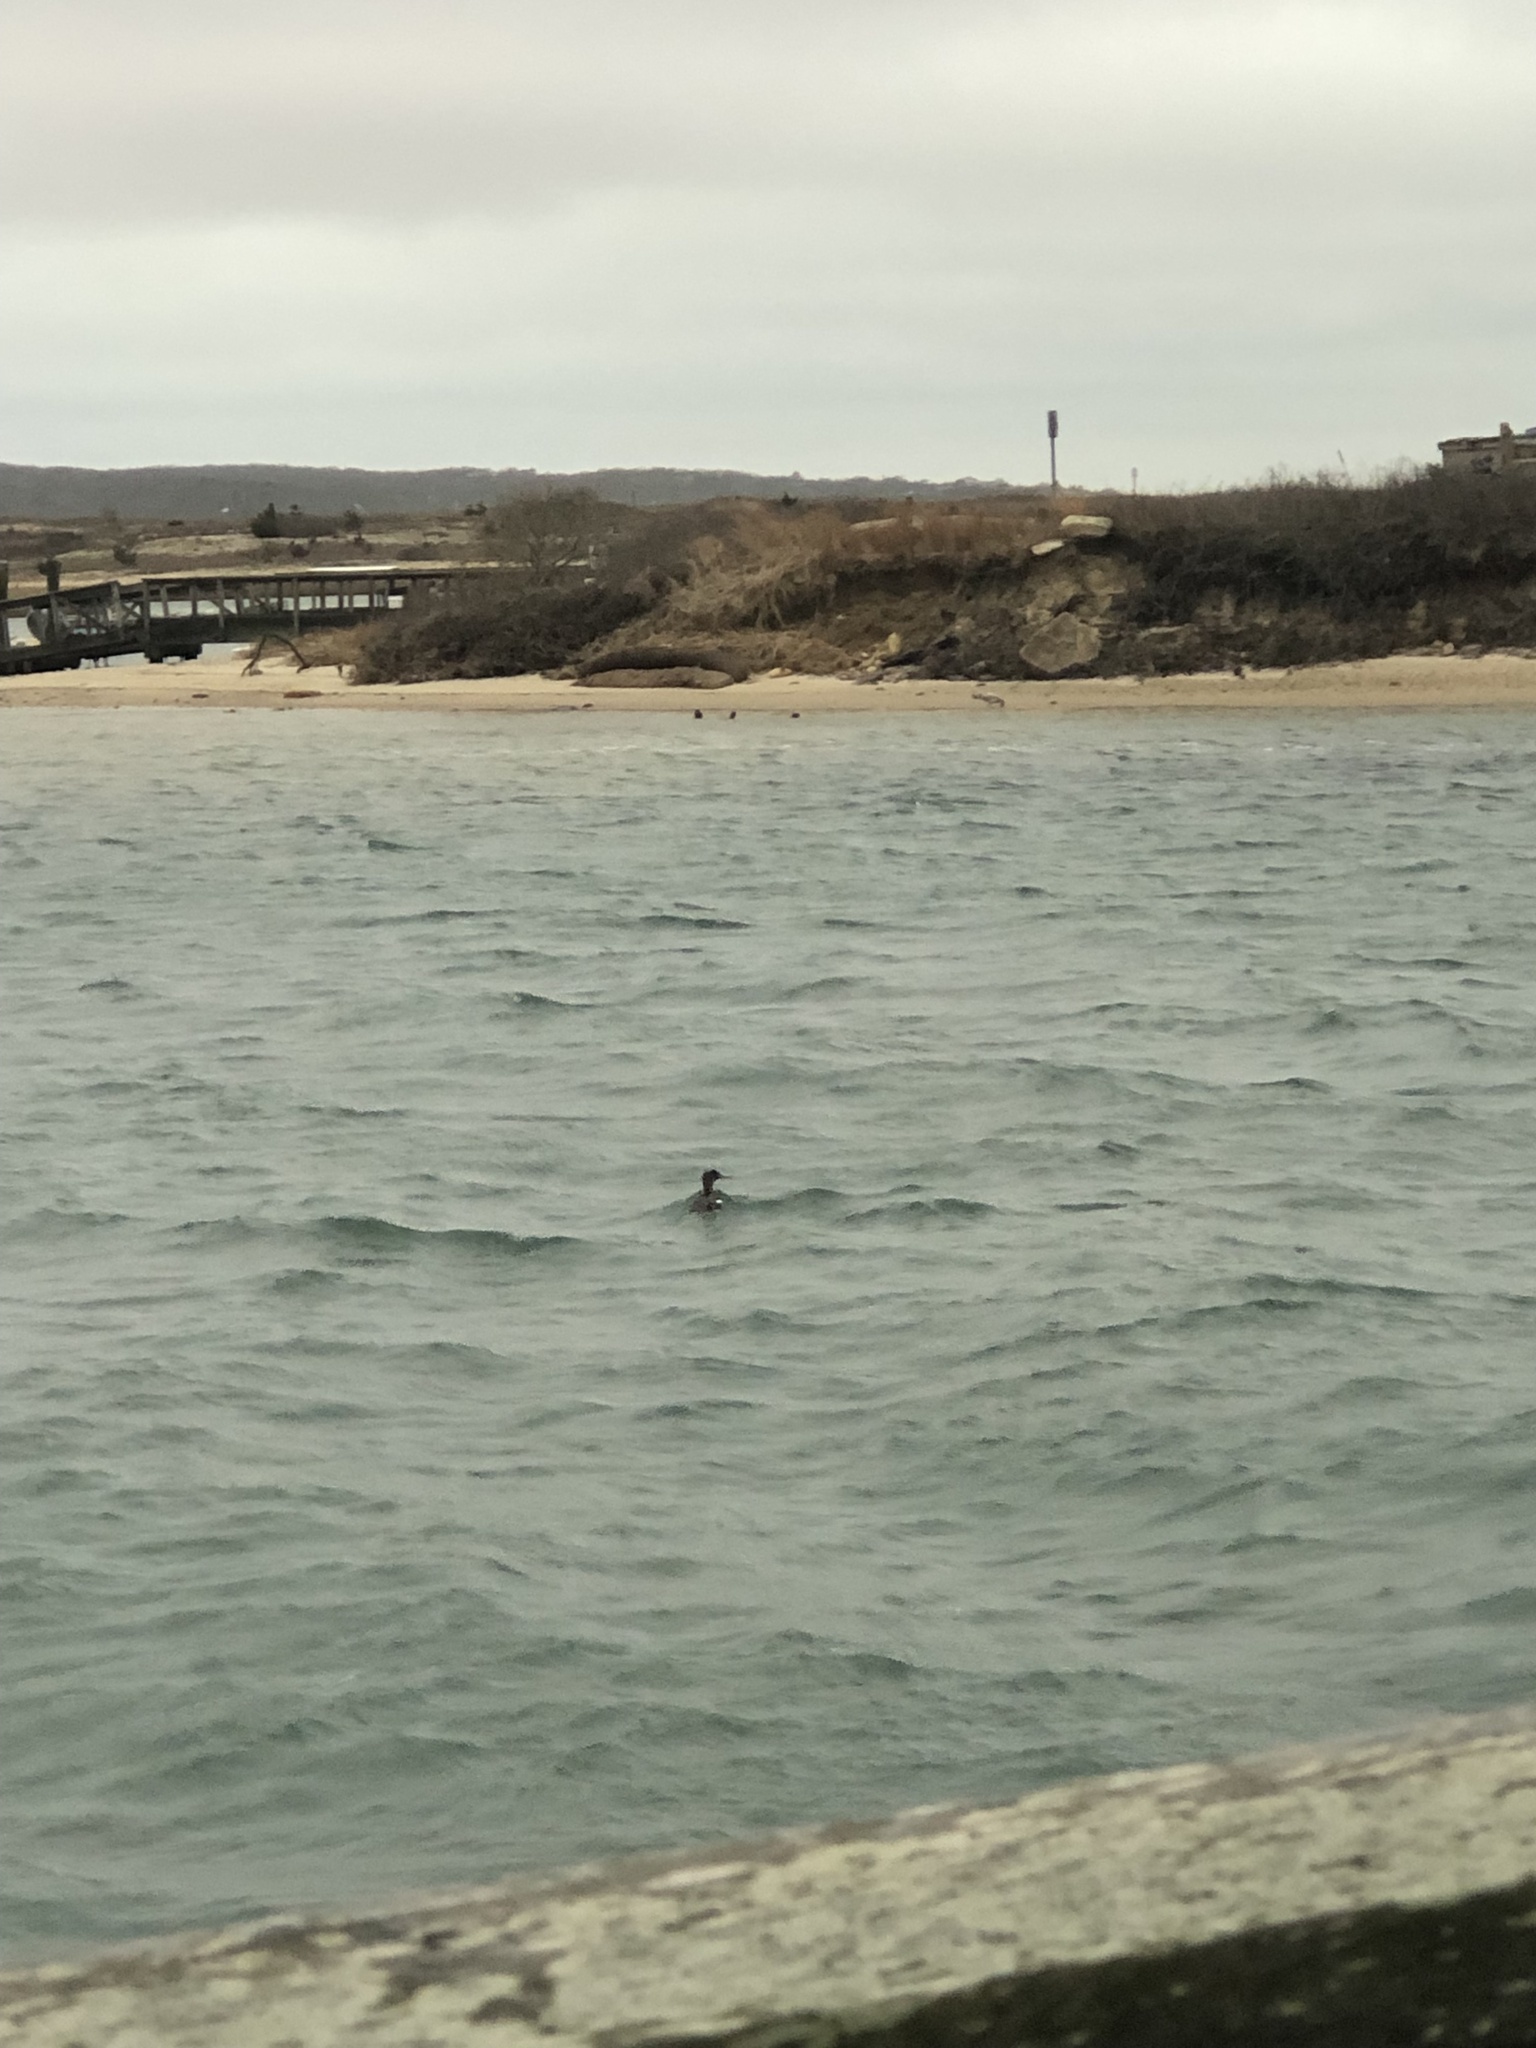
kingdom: Animalia
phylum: Chordata
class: Aves
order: Anseriformes
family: Anatidae
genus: Mergus
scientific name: Mergus serrator
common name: Red-breasted merganser
